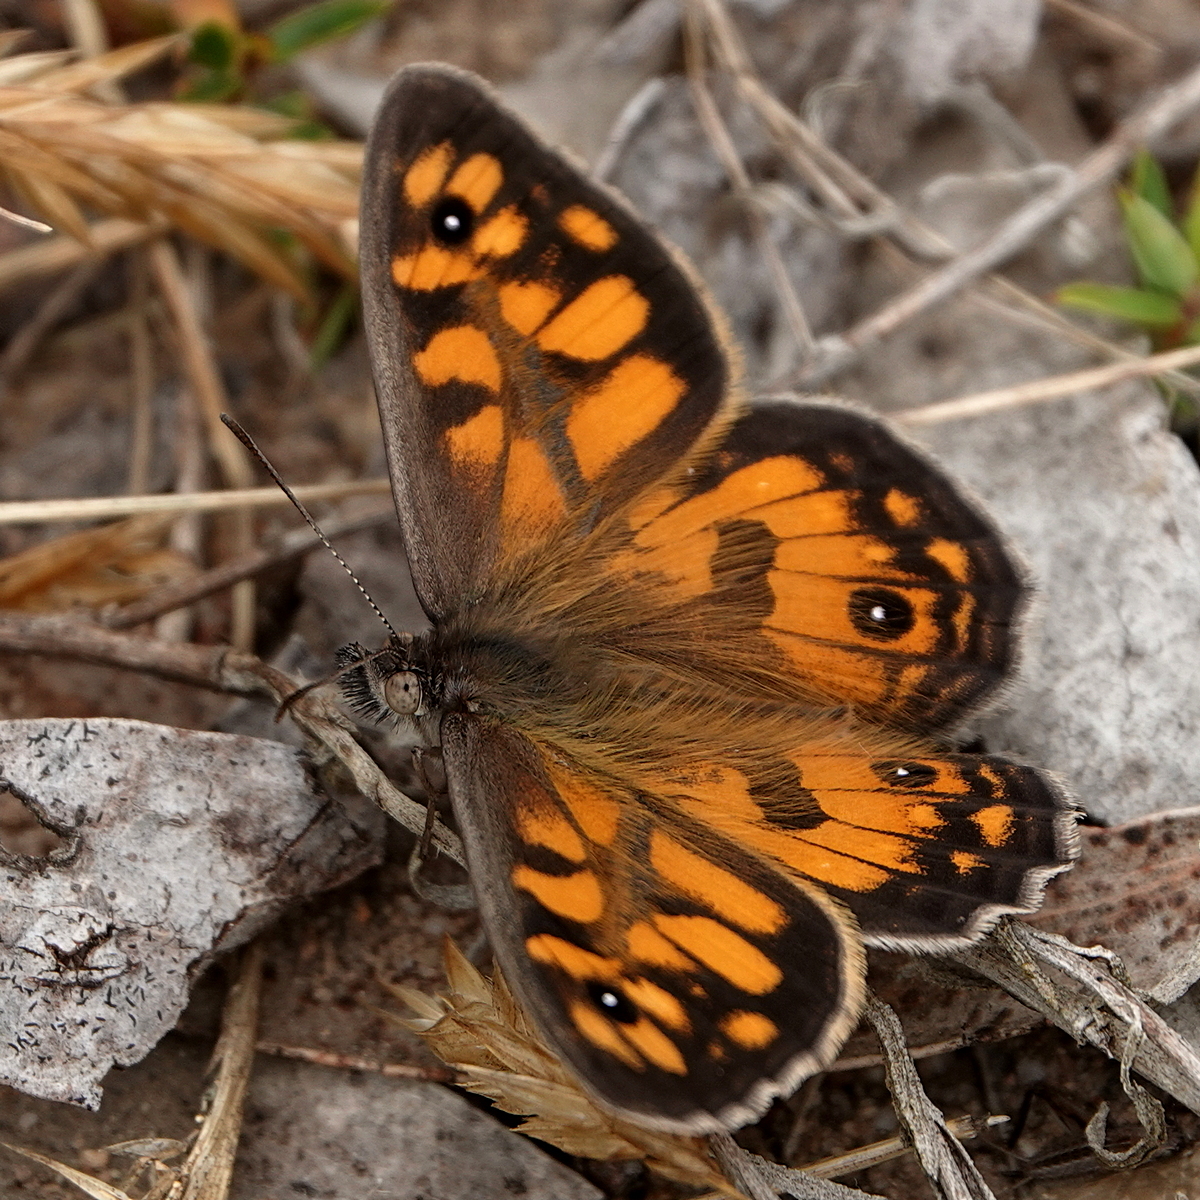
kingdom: Animalia
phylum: Arthropoda
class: Insecta
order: Lepidoptera
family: Nymphalidae
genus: Geitoneura
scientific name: Geitoneura klugii
